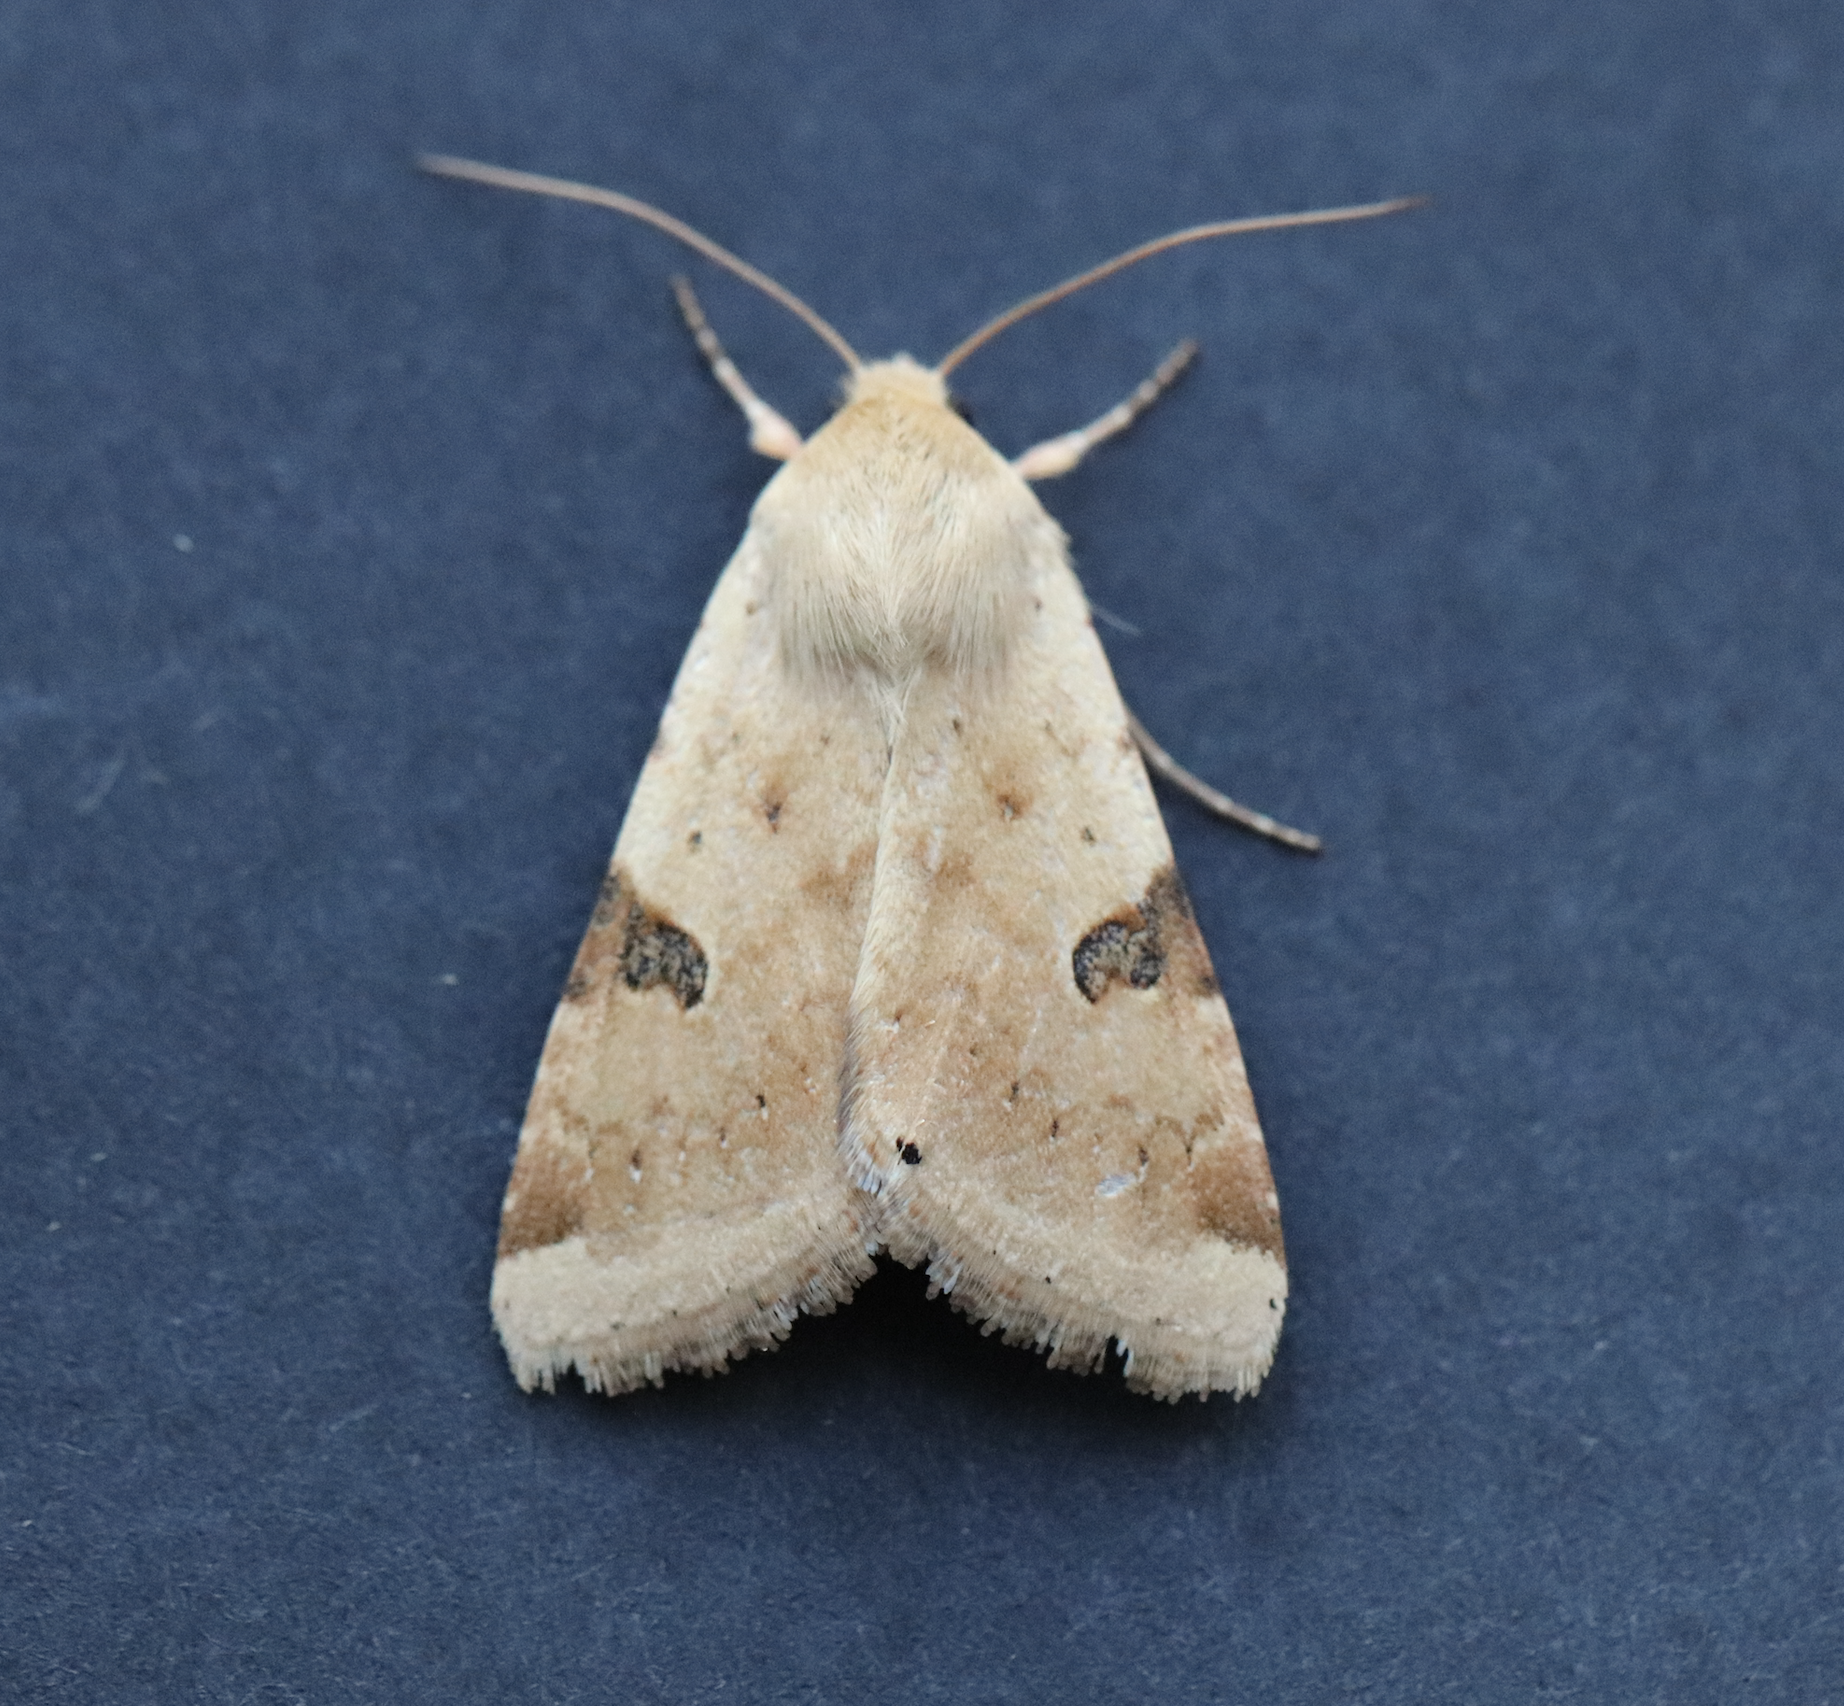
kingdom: Animalia
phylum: Arthropoda
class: Insecta
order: Lepidoptera
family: Noctuidae
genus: Heliothis
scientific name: Heliothis peltigera
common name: Bordered straw
